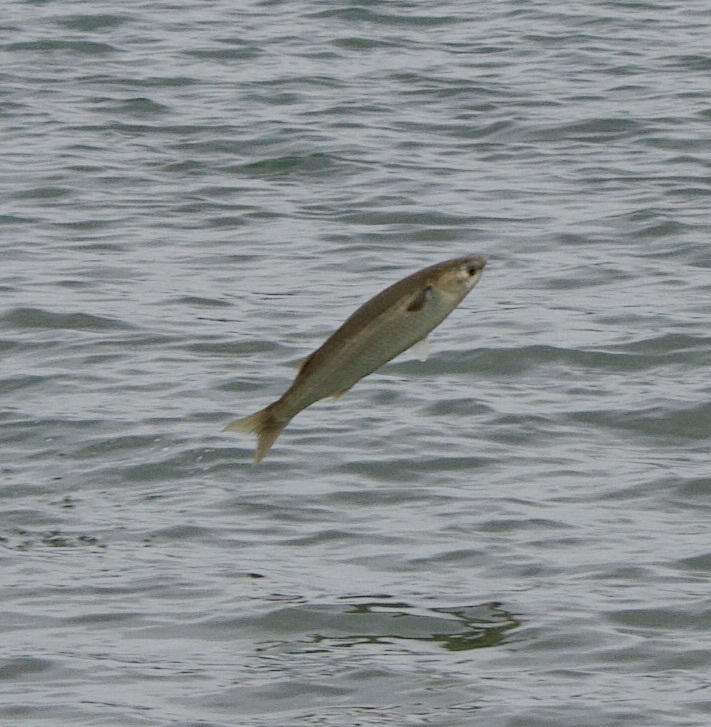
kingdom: Animalia
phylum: Chordata
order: Mugiliformes
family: Mugilidae
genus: Mugil
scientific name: Mugil cephalus
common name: Grey mullet
